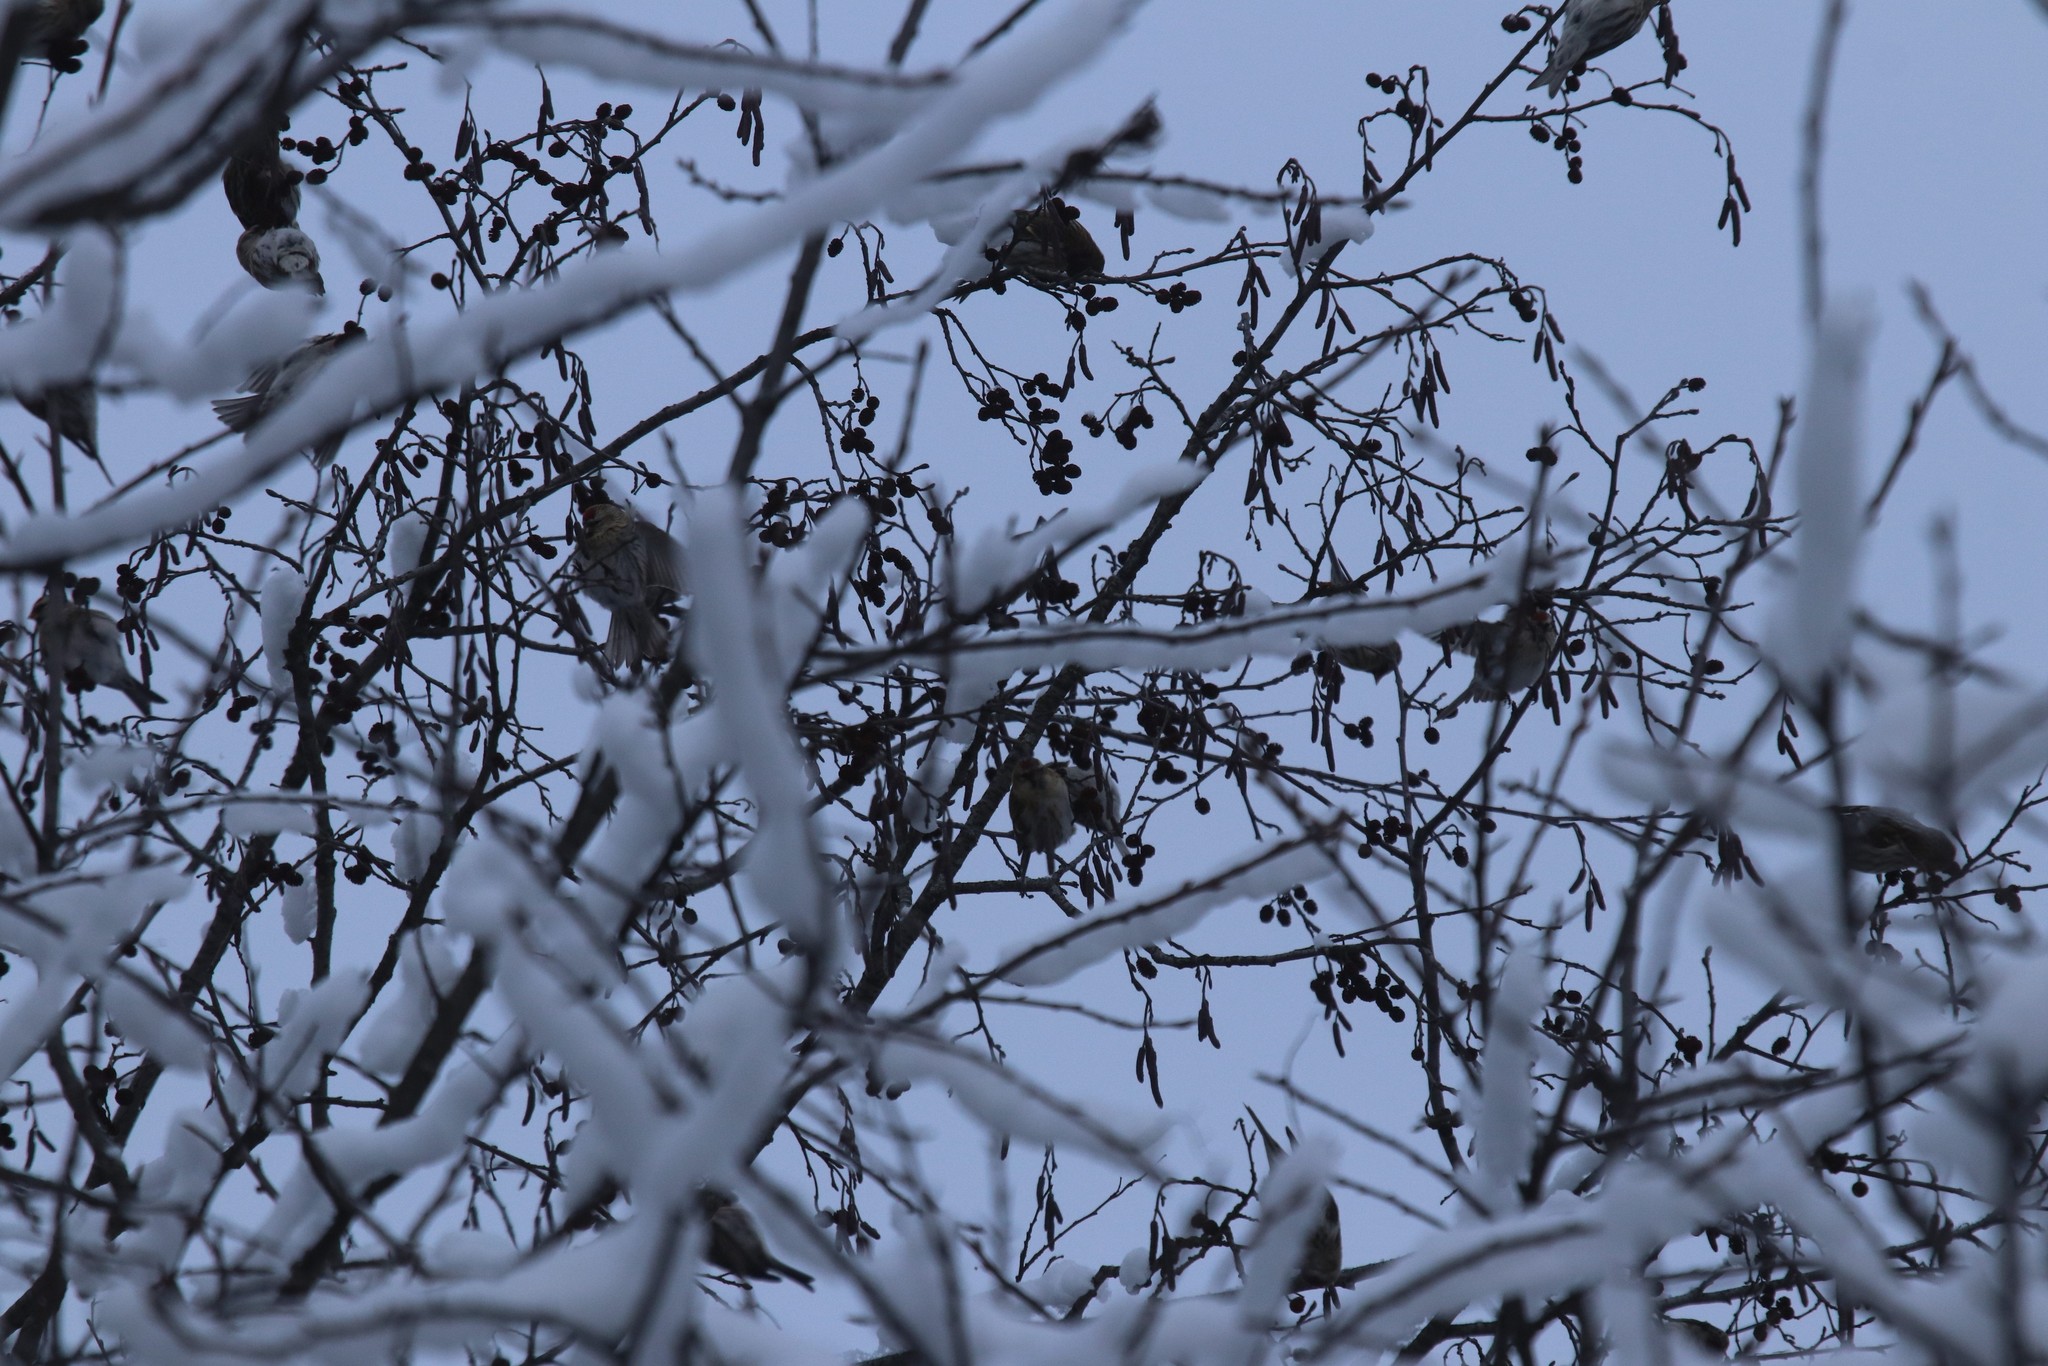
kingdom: Animalia
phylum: Chordata
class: Aves
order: Passeriformes
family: Fringillidae
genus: Acanthis
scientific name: Acanthis flammea
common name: Common redpoll
